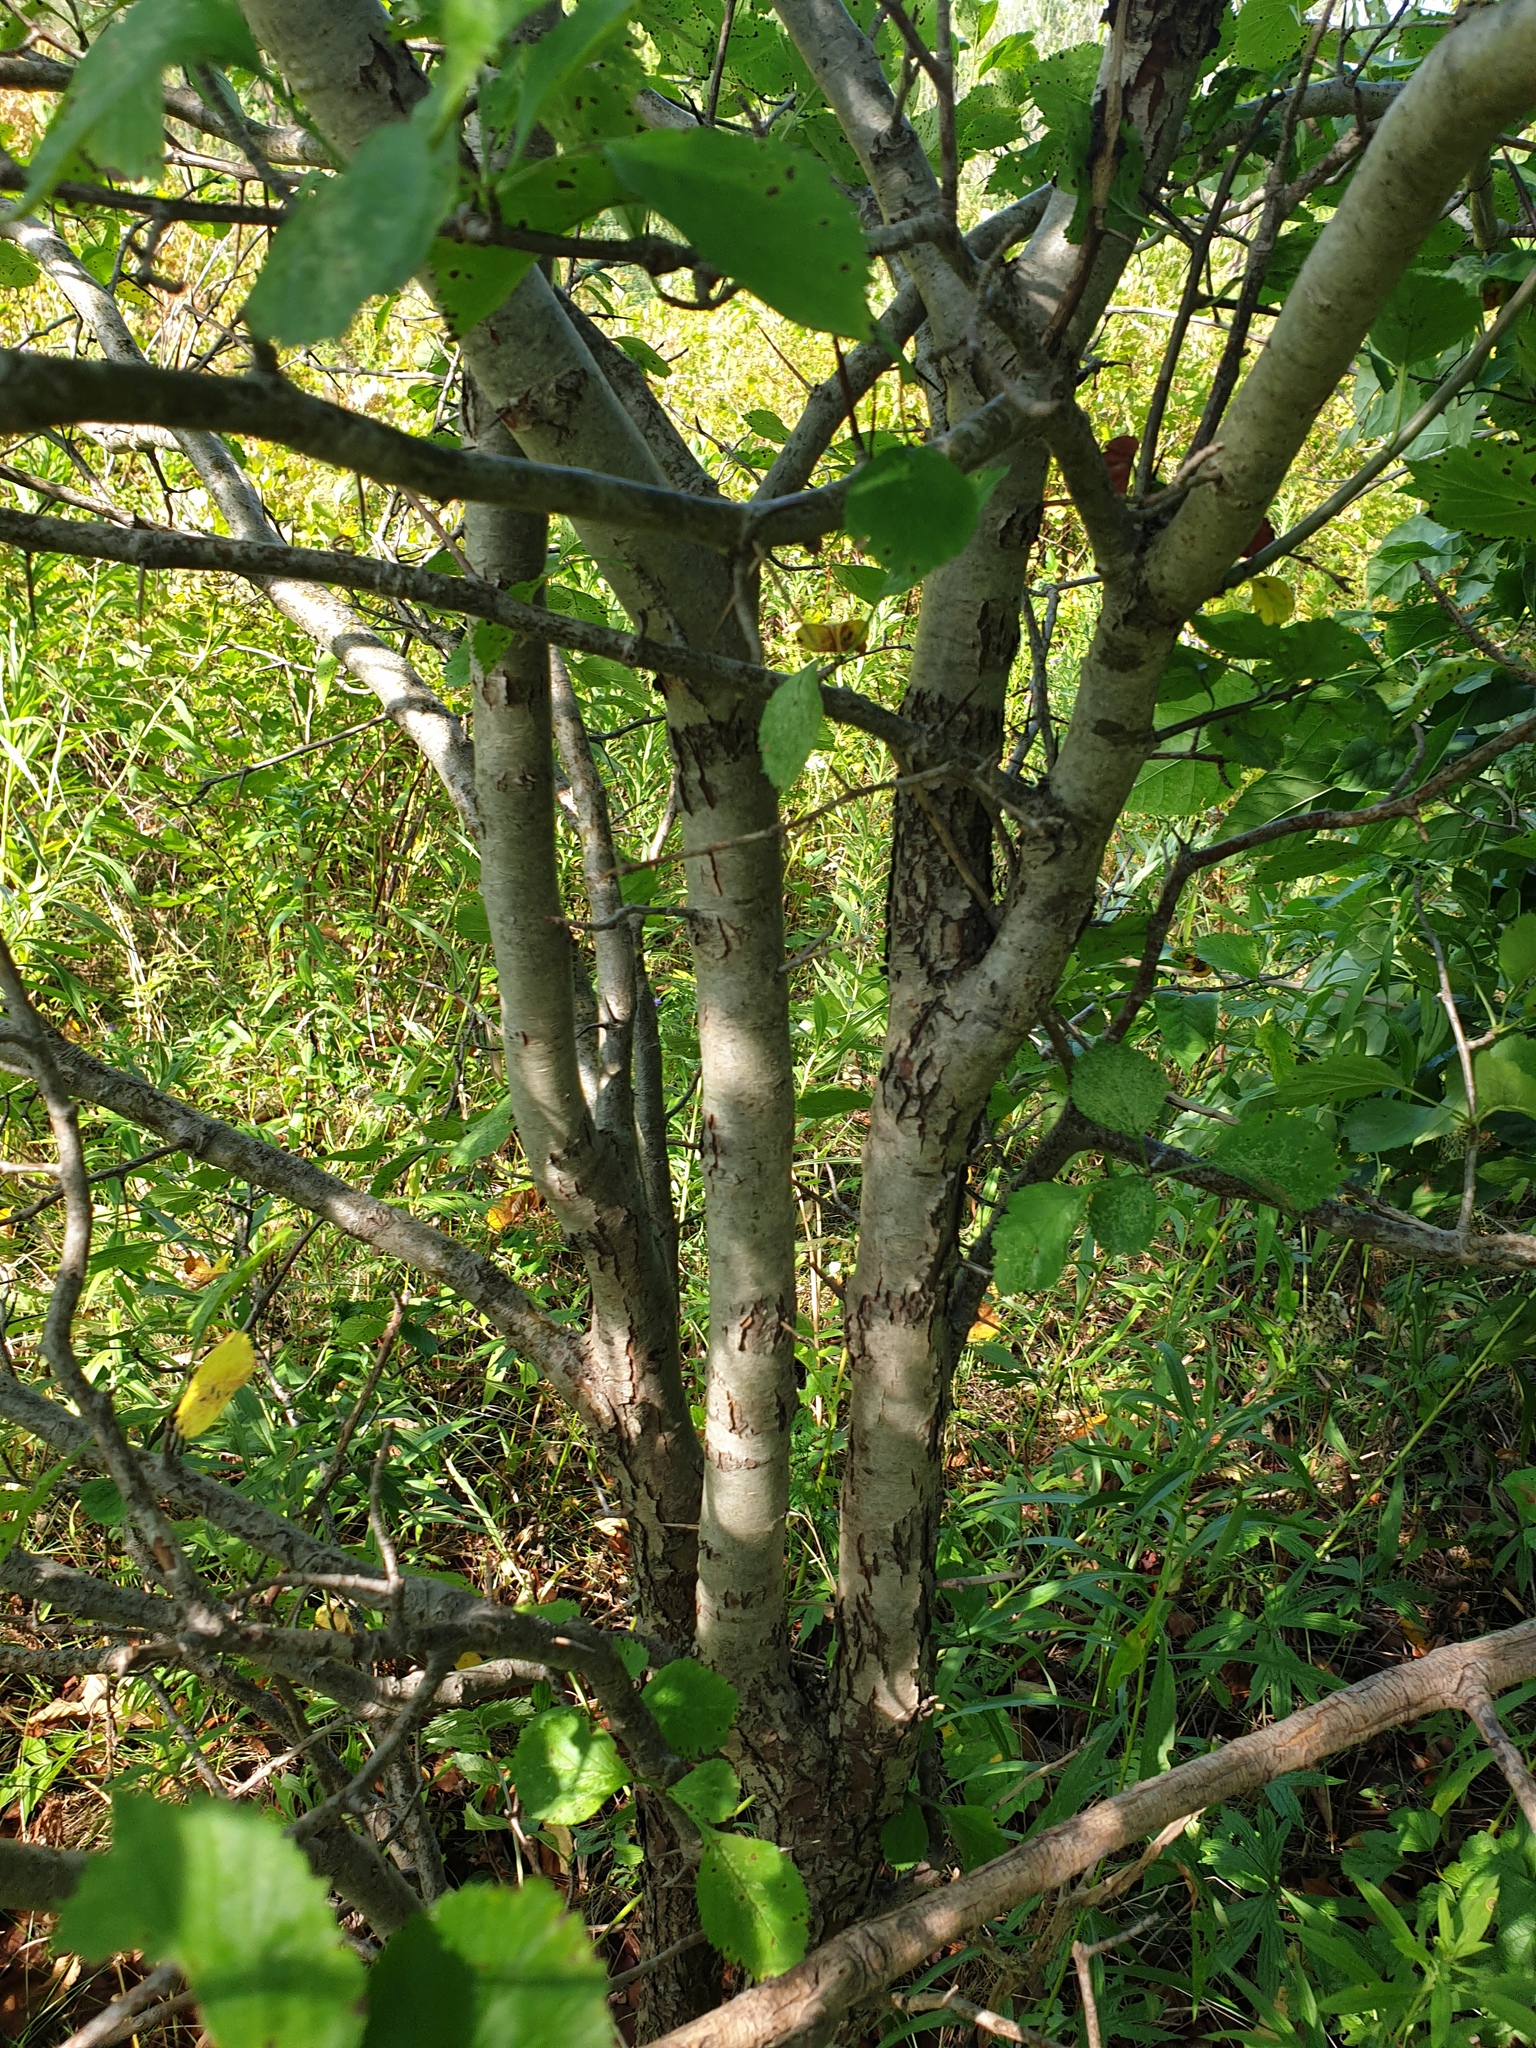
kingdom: Plantae
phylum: Tracheophyta
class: Magnoliopsida
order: Rosales
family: Rosaceae
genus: Crataegus
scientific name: Crataegus suborbiculata
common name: Caughnawaga hawthorn
